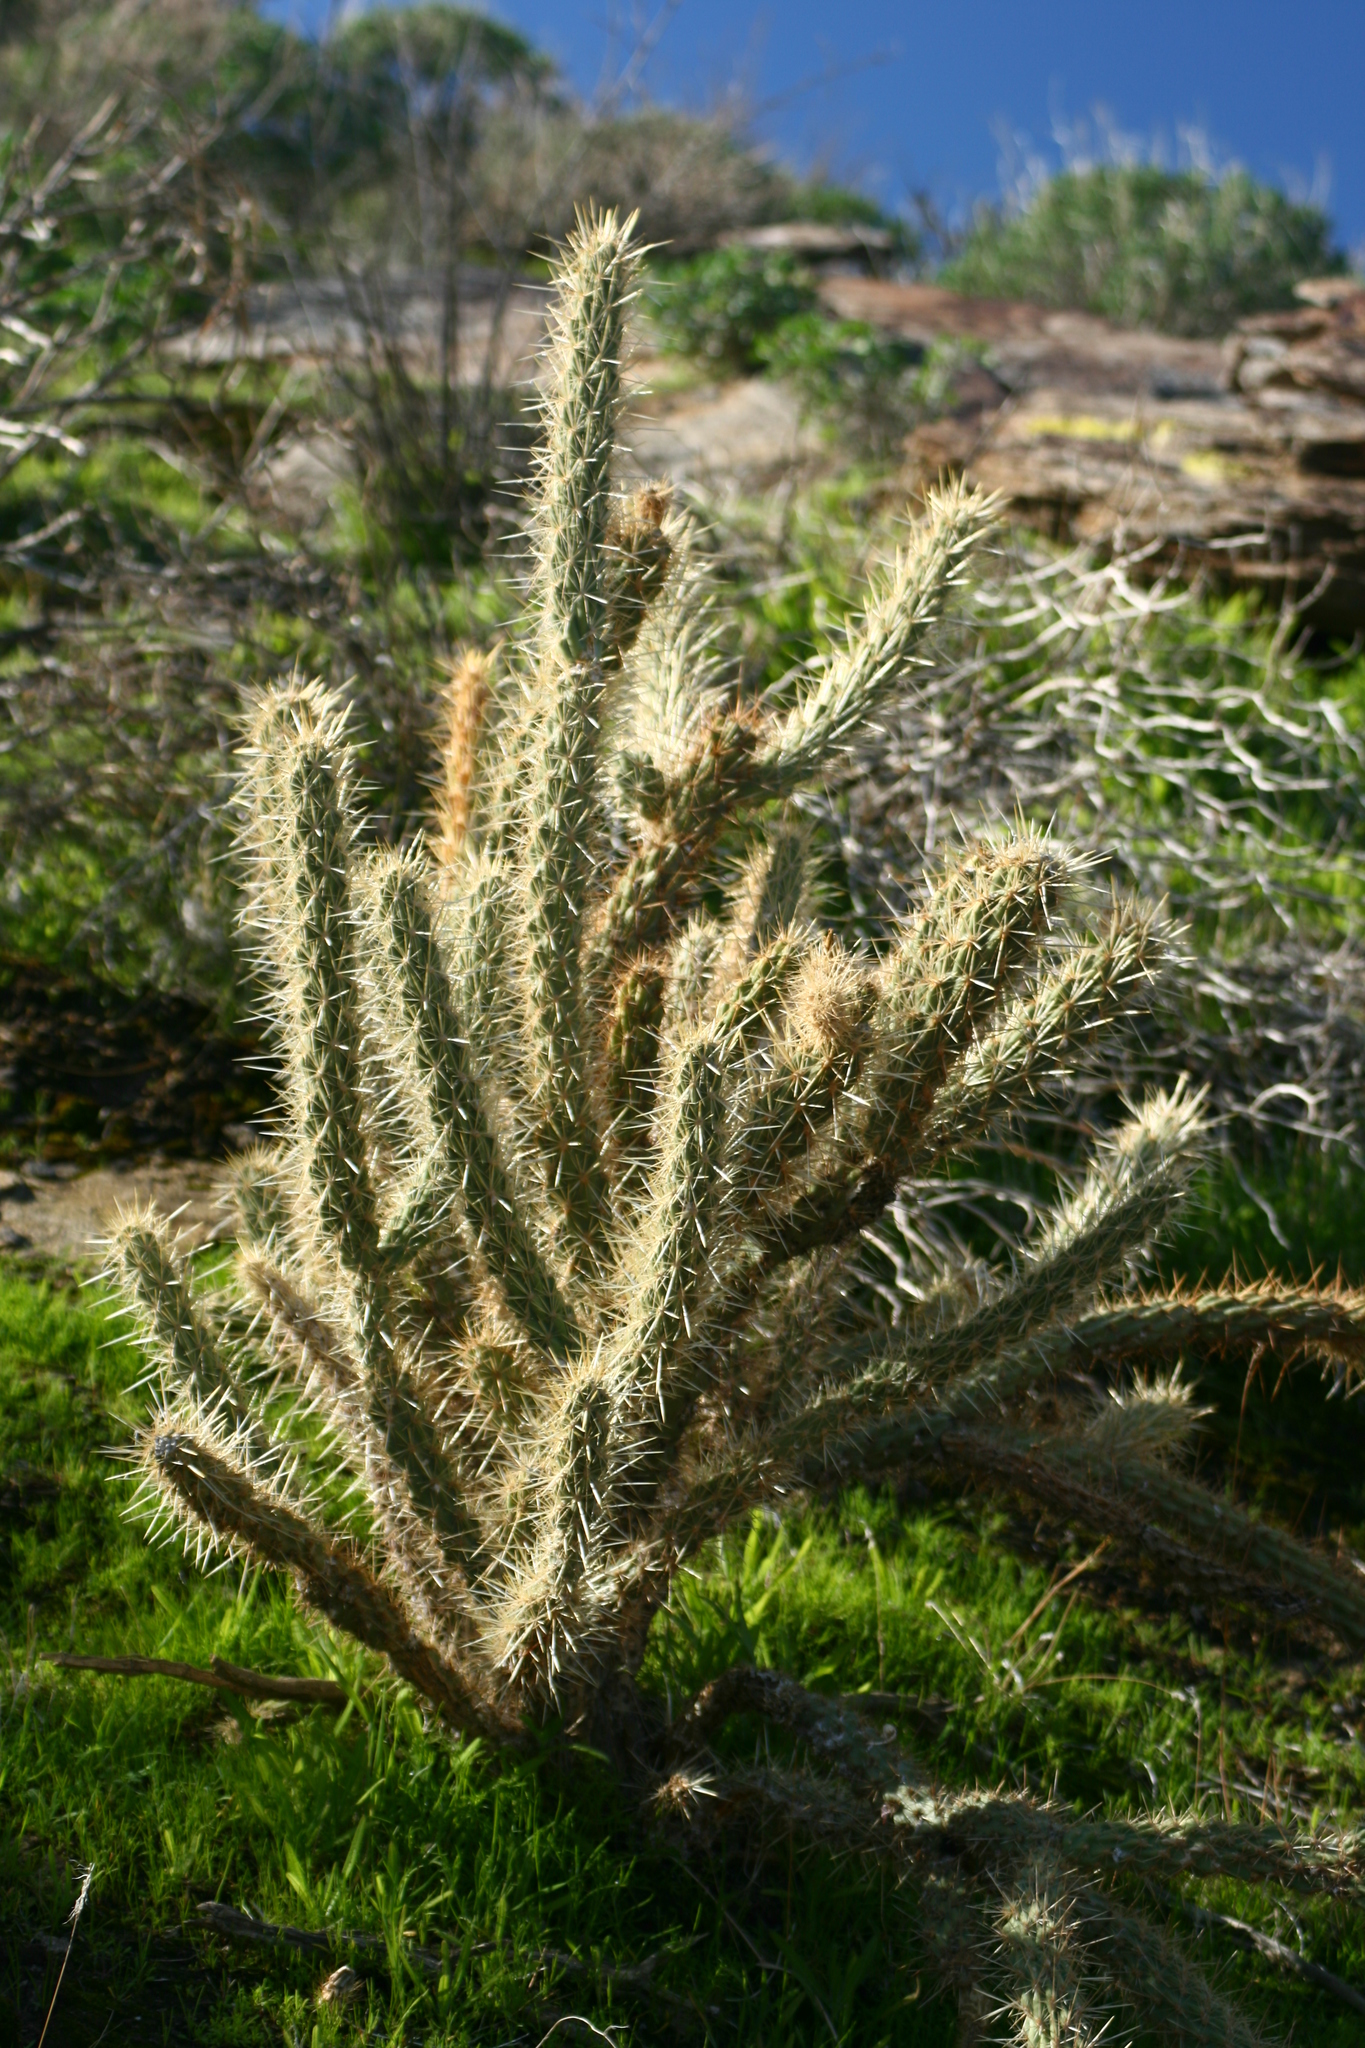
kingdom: Plantae
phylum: Tracheophyta
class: Magnoliopsida
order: Caryophyllales
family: Cactaceae
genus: Cylindropuntia
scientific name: Cylindropuntia ganderi
